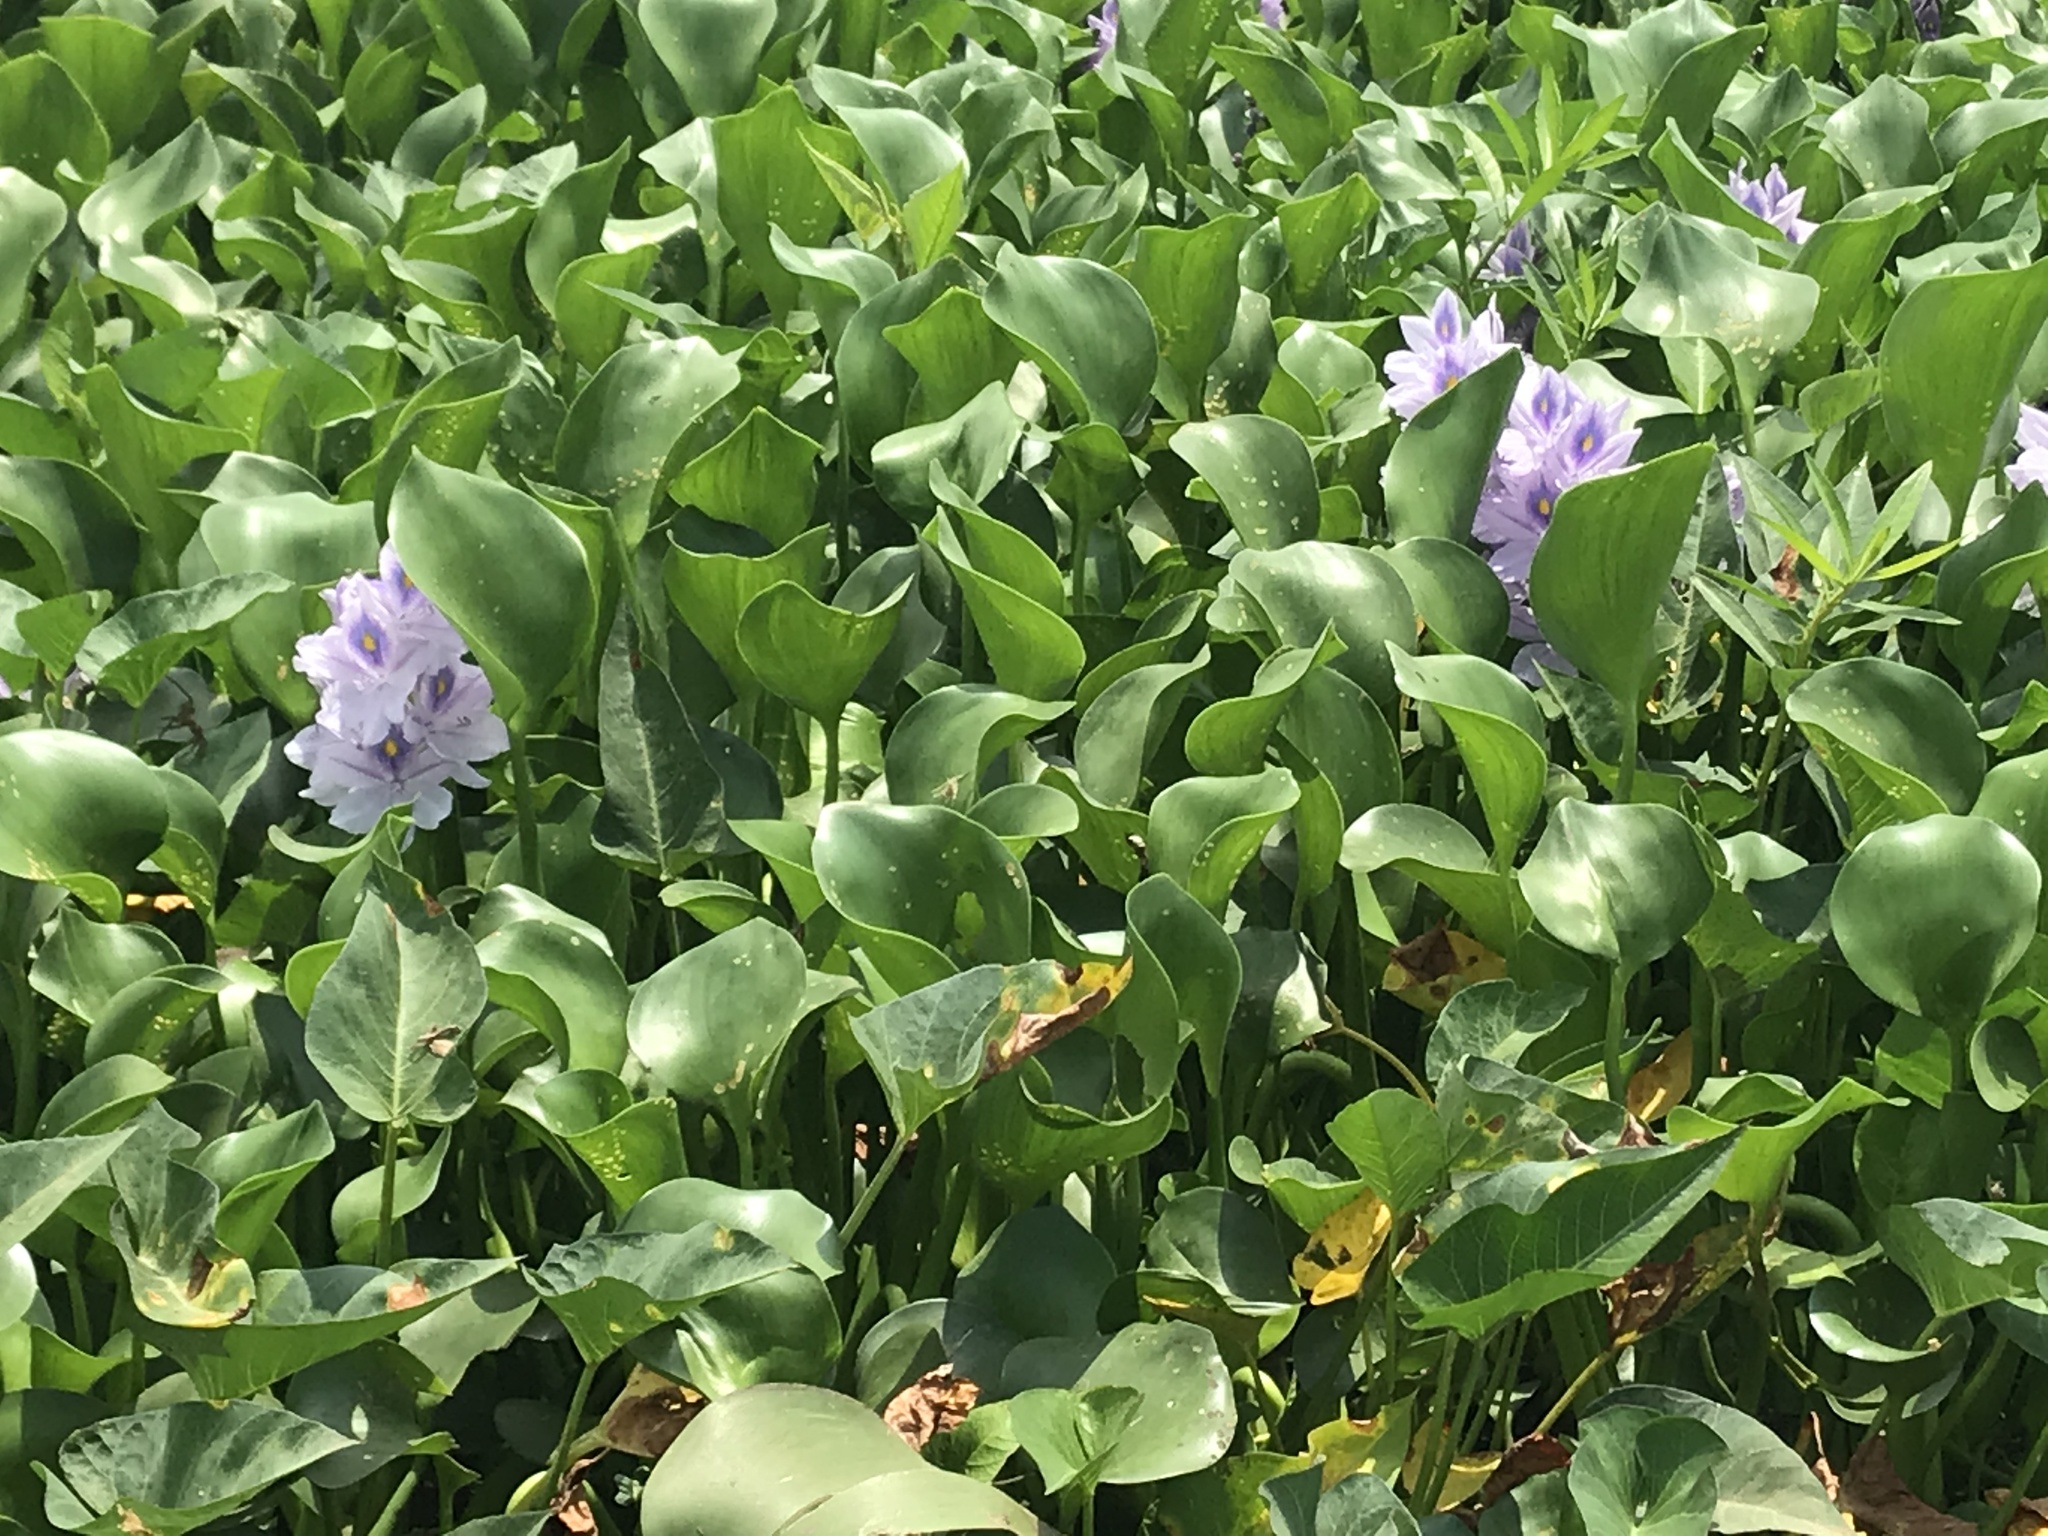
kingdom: Plantae
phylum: Tracheophyta
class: Liliopsida
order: Commelinales
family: Pontederiaceae
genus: Pontederia
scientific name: Pontederia crassipes
